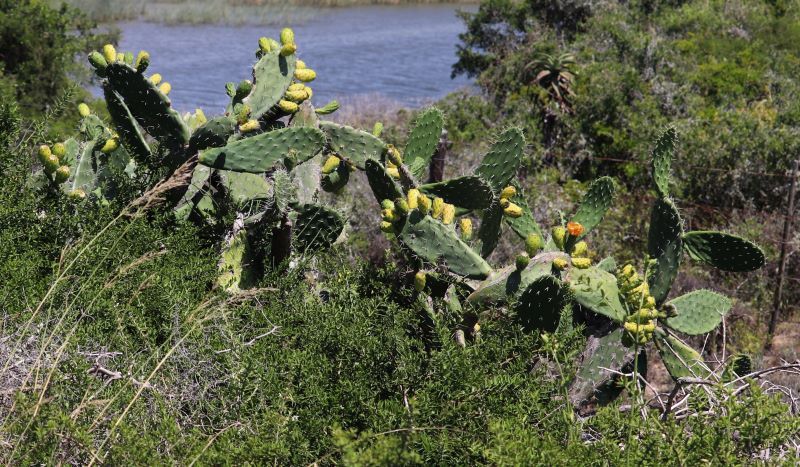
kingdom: Plantae
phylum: Tracheophyta
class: Magnoliopsida
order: Caryophyllales
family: Cactaceae
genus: Opuntia
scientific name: Opuntia ficus-indica
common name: Barbary fig
